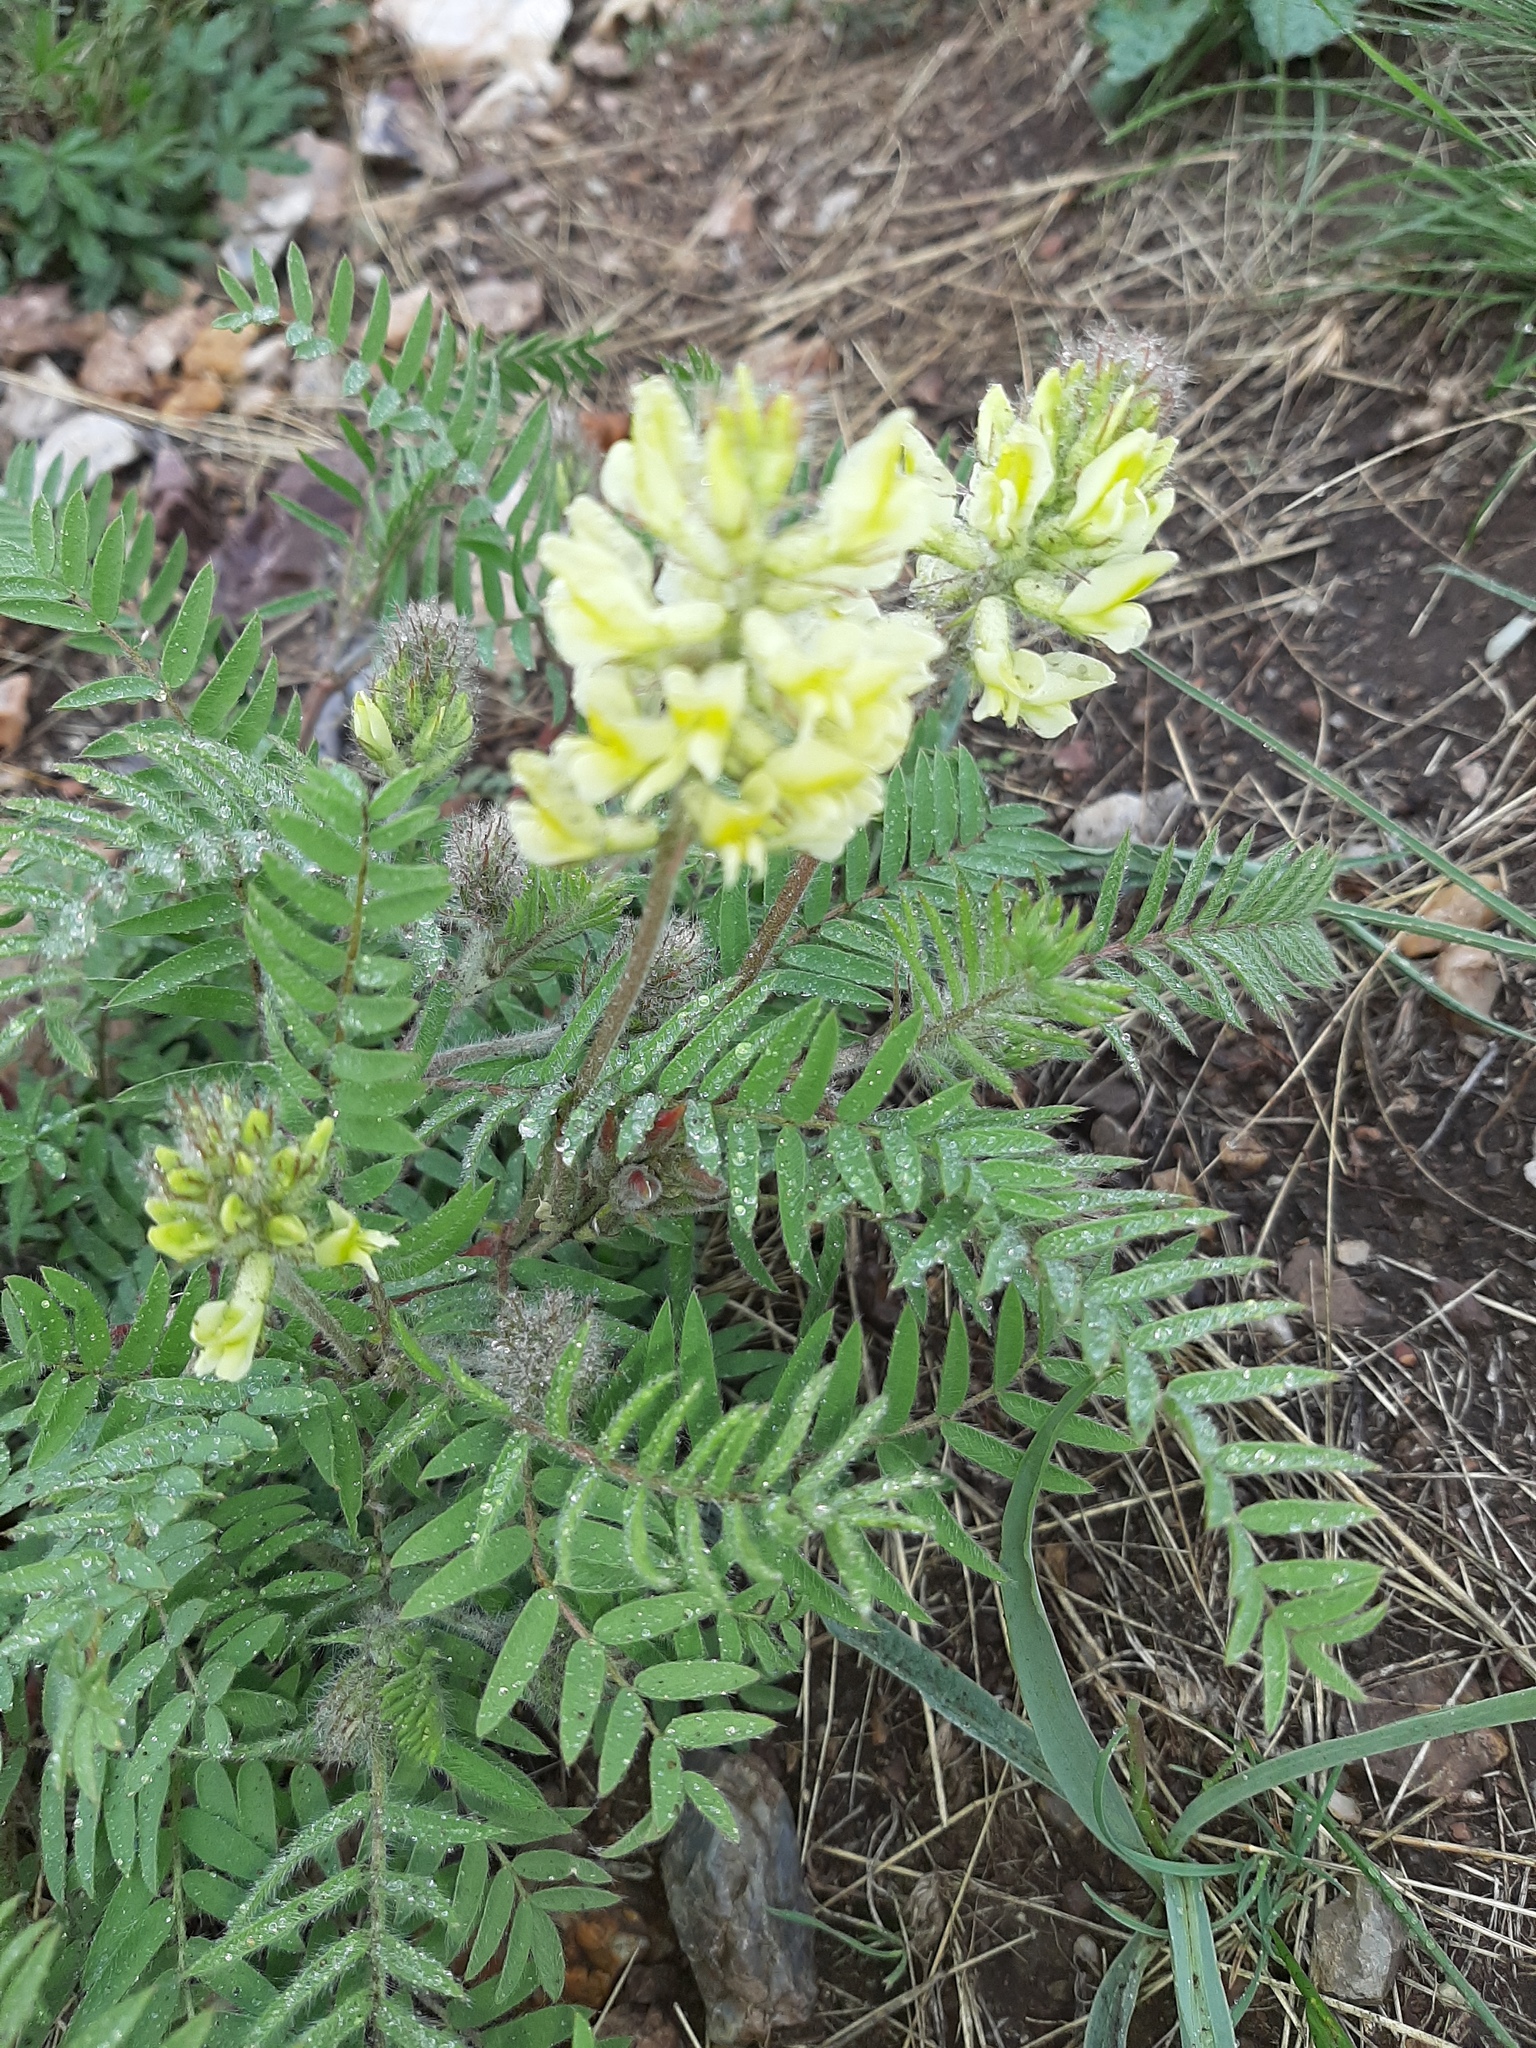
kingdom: Plantae
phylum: Tracheophyta
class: Magnoliopsida
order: Fabales
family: Fabaceae
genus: Oxytropis
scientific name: Oxytropis pilosa
